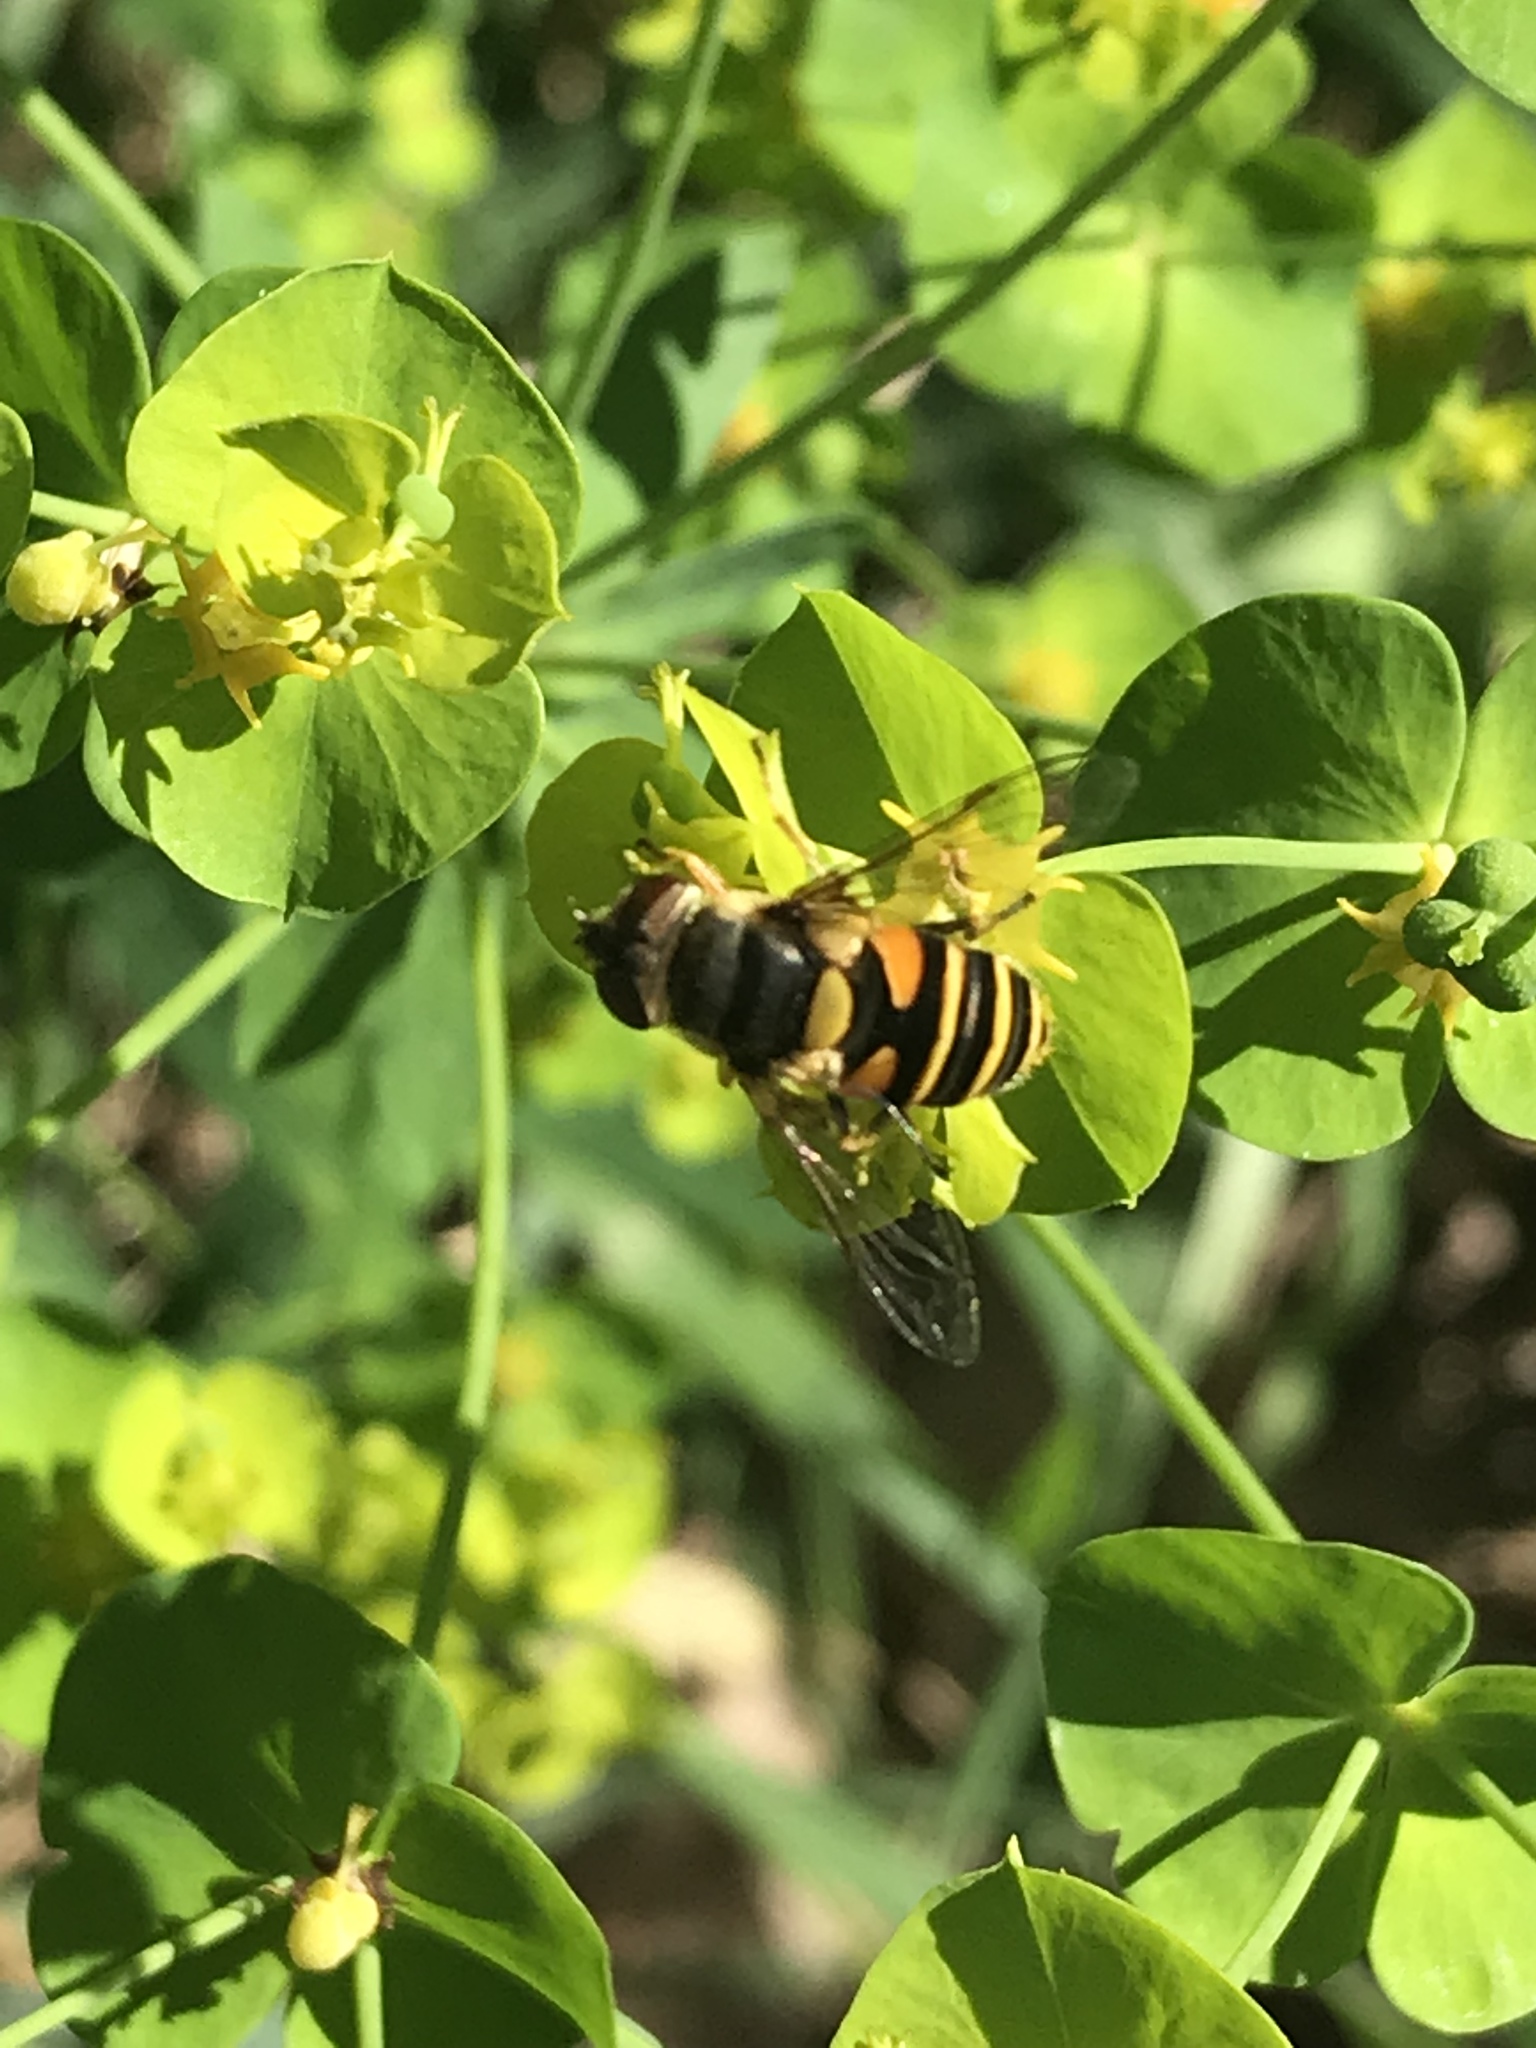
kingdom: Animalia
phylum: Arthropoda
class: Insecta
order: Diptera
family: Syrphidae
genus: Eristalis
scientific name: Eristalis transversa
